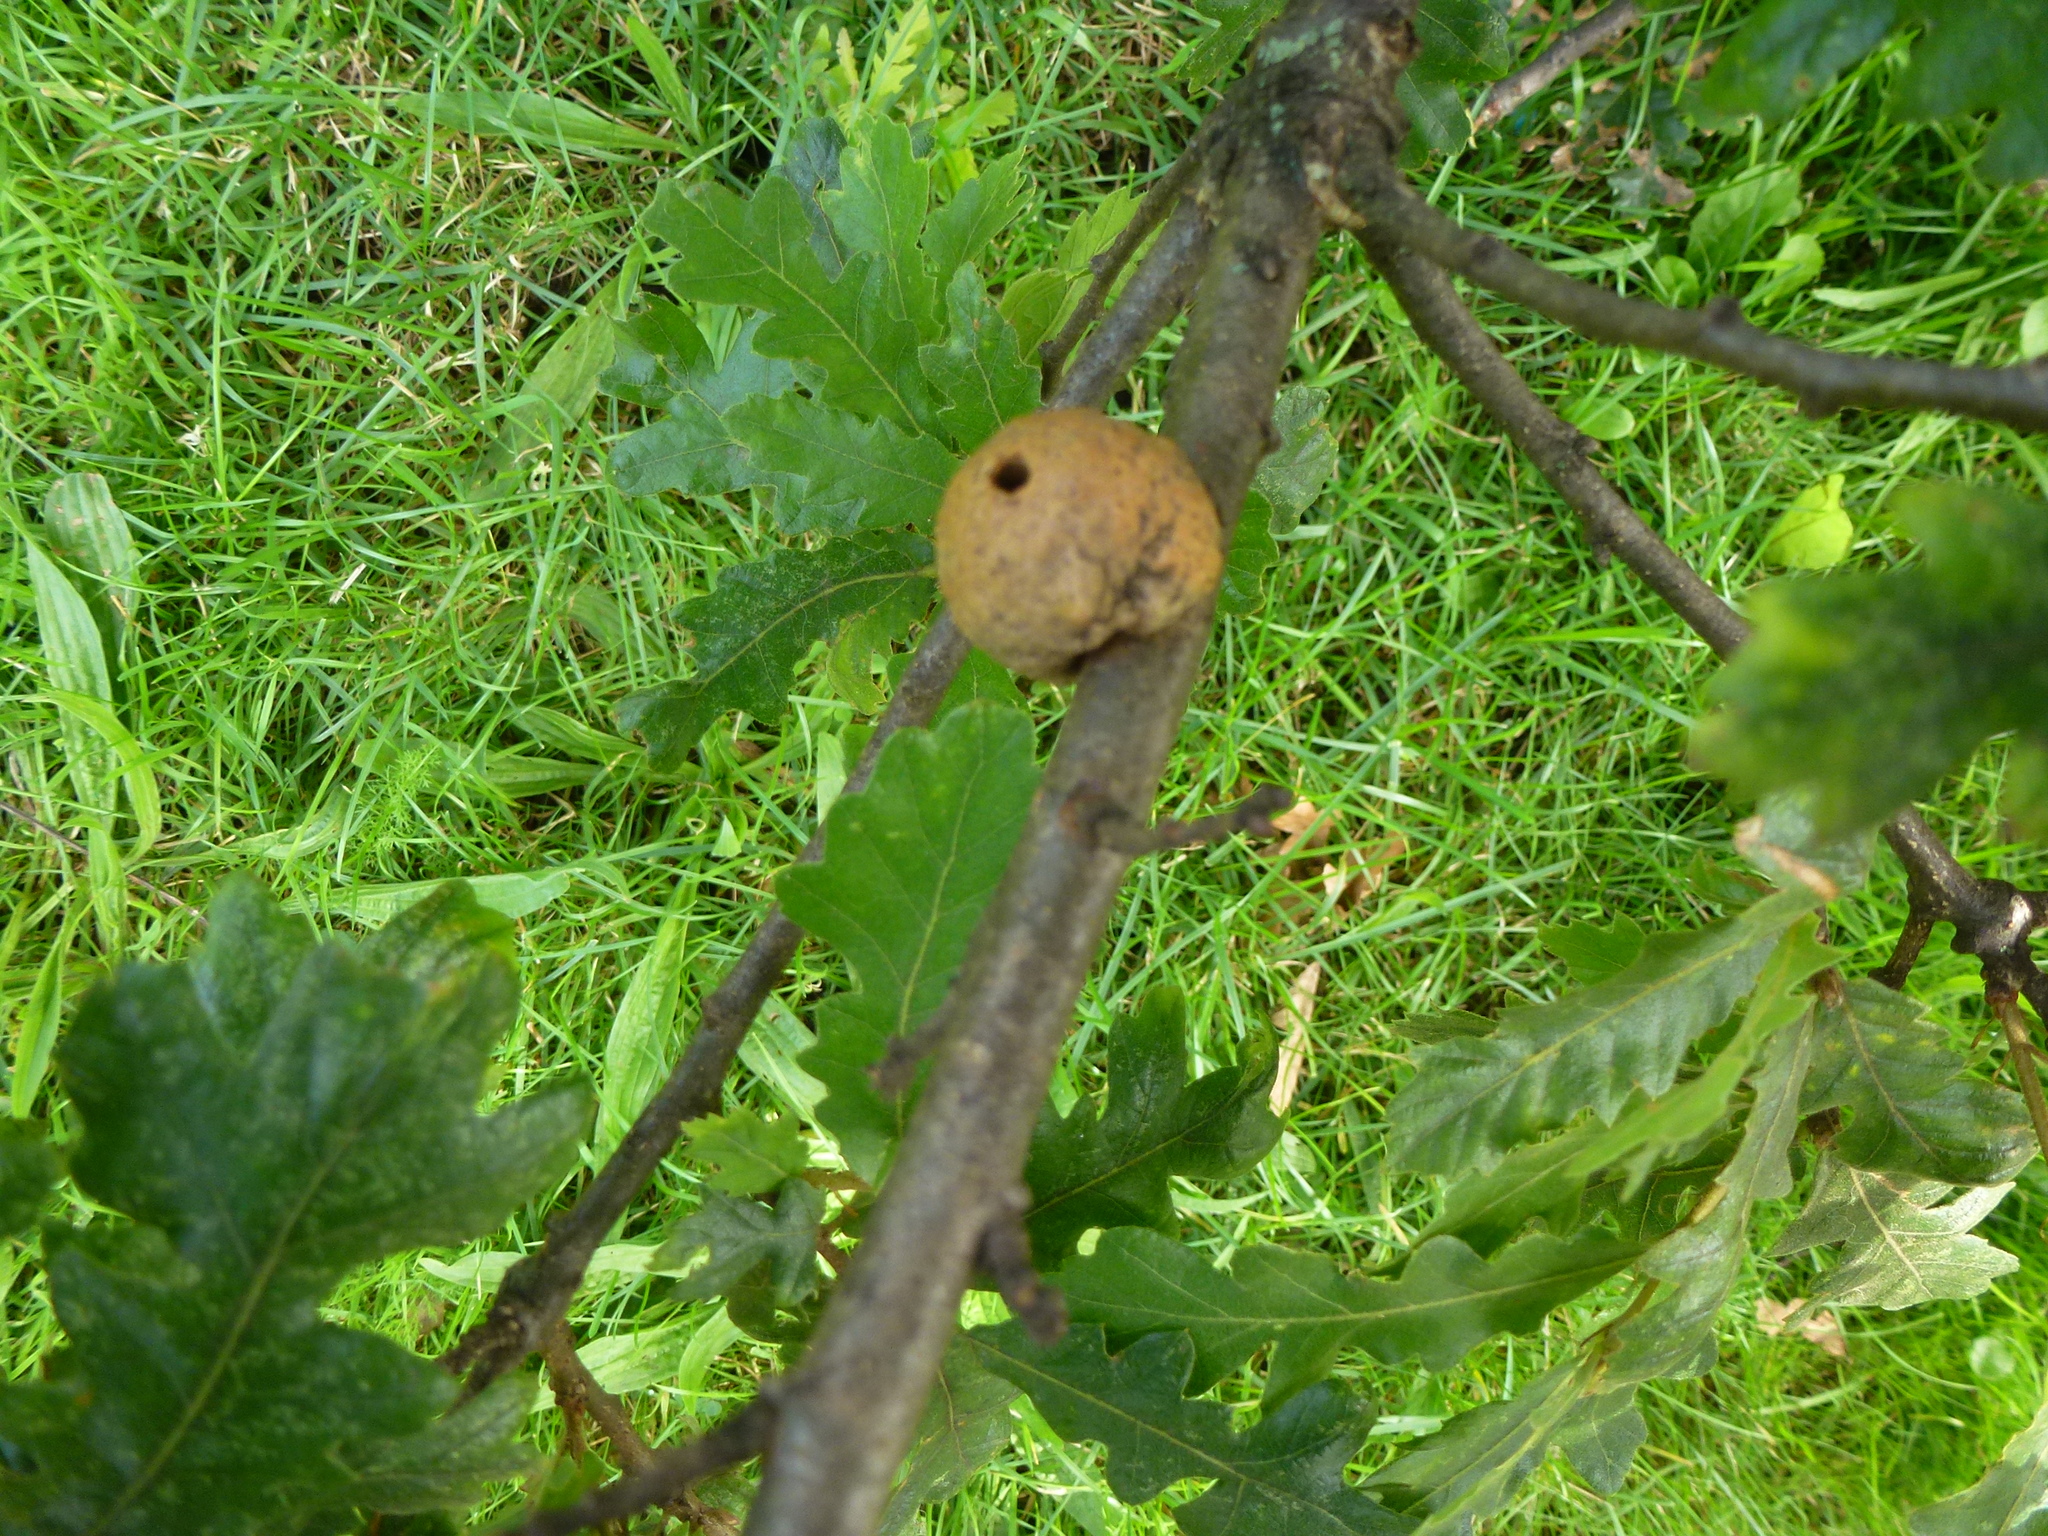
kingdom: Animalia
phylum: Arthropoda
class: Insecta
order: Hymenoptera
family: Cynipidae
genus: Aphelonyx
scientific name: Aphelonyx cerricola
